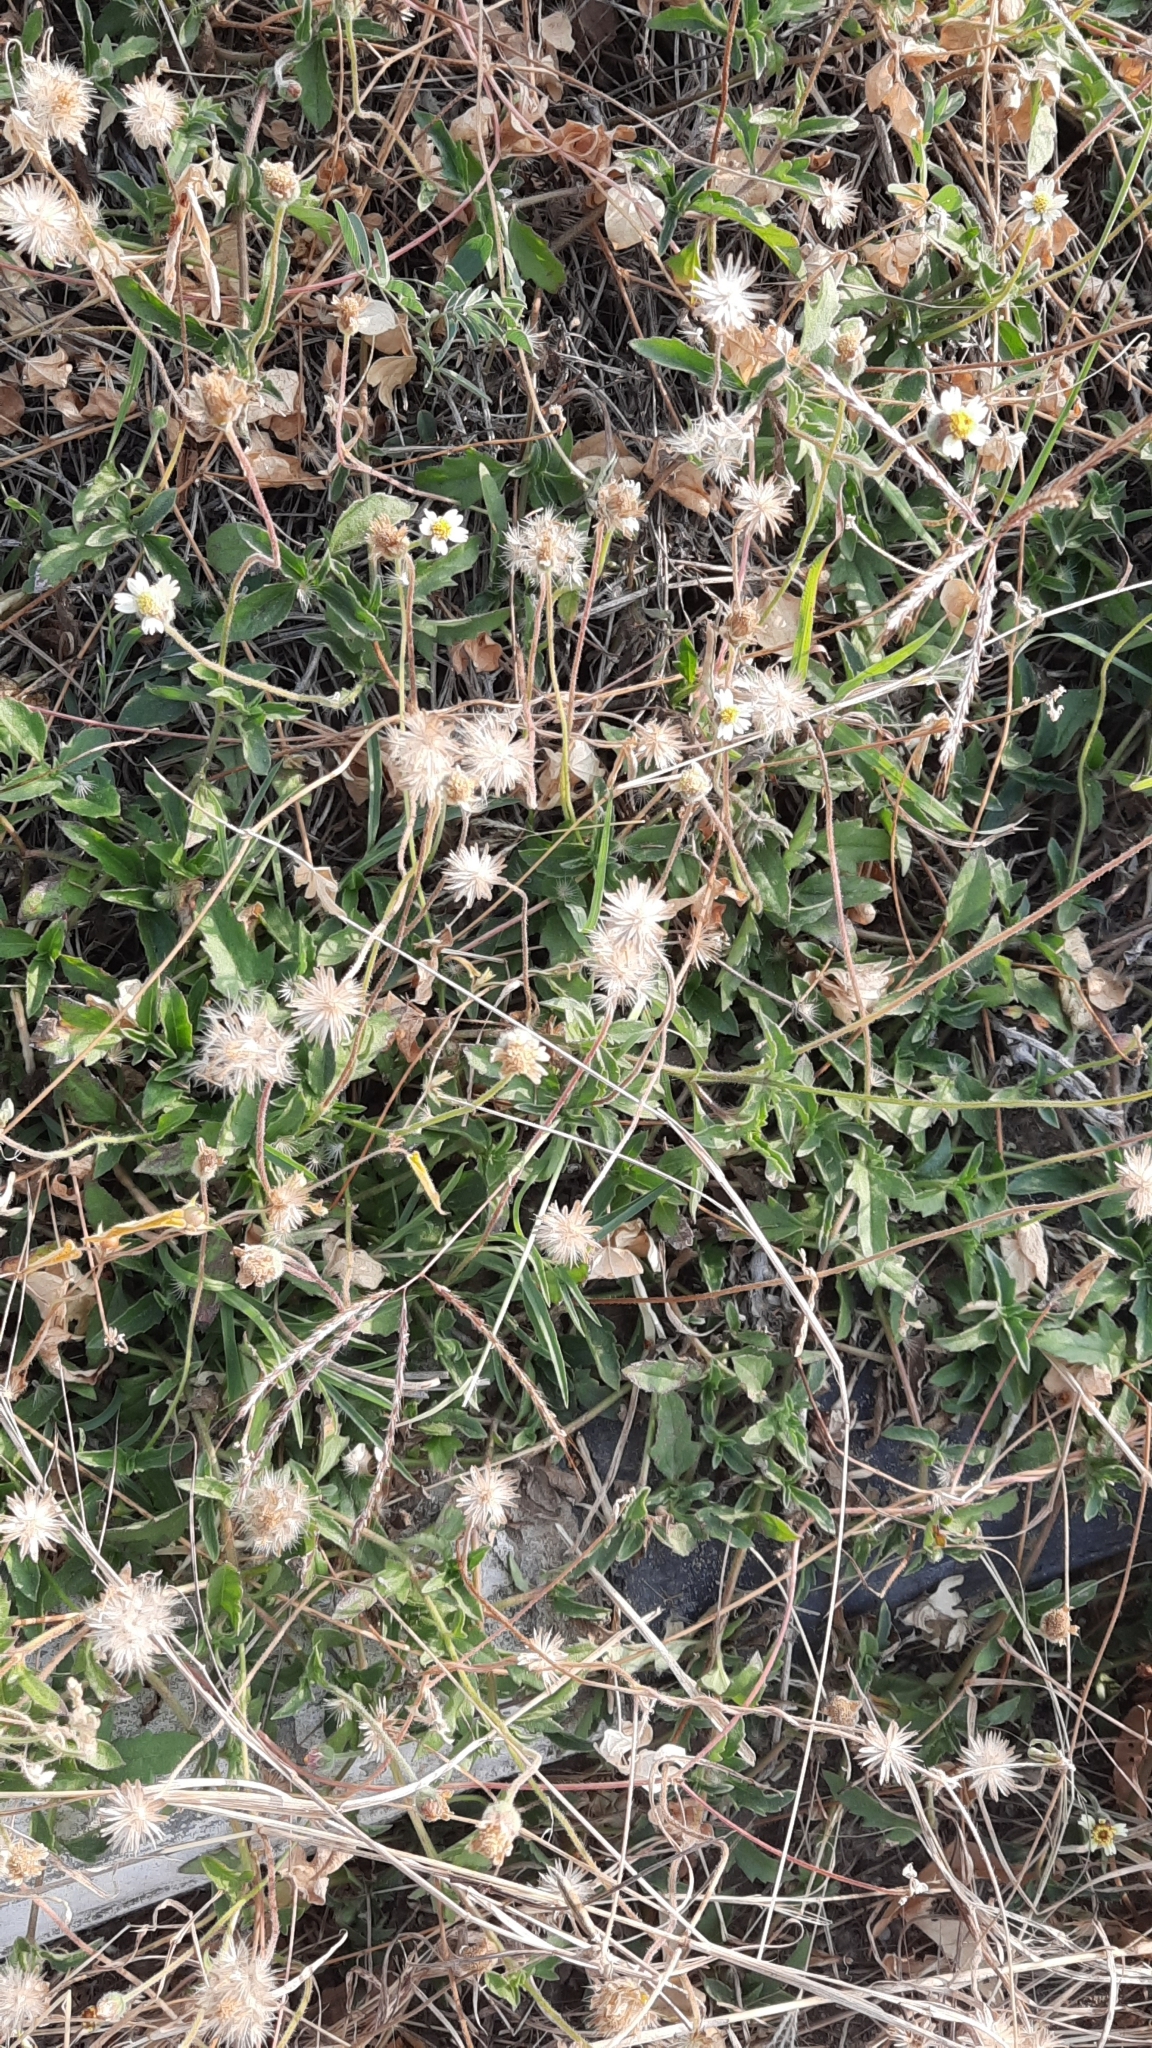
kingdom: Plantae
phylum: Tracheophyta
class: Magnoliopsida
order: Asterales
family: Asteraceae
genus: Tridax
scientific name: Tridax procumbens
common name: Coatbuttons
